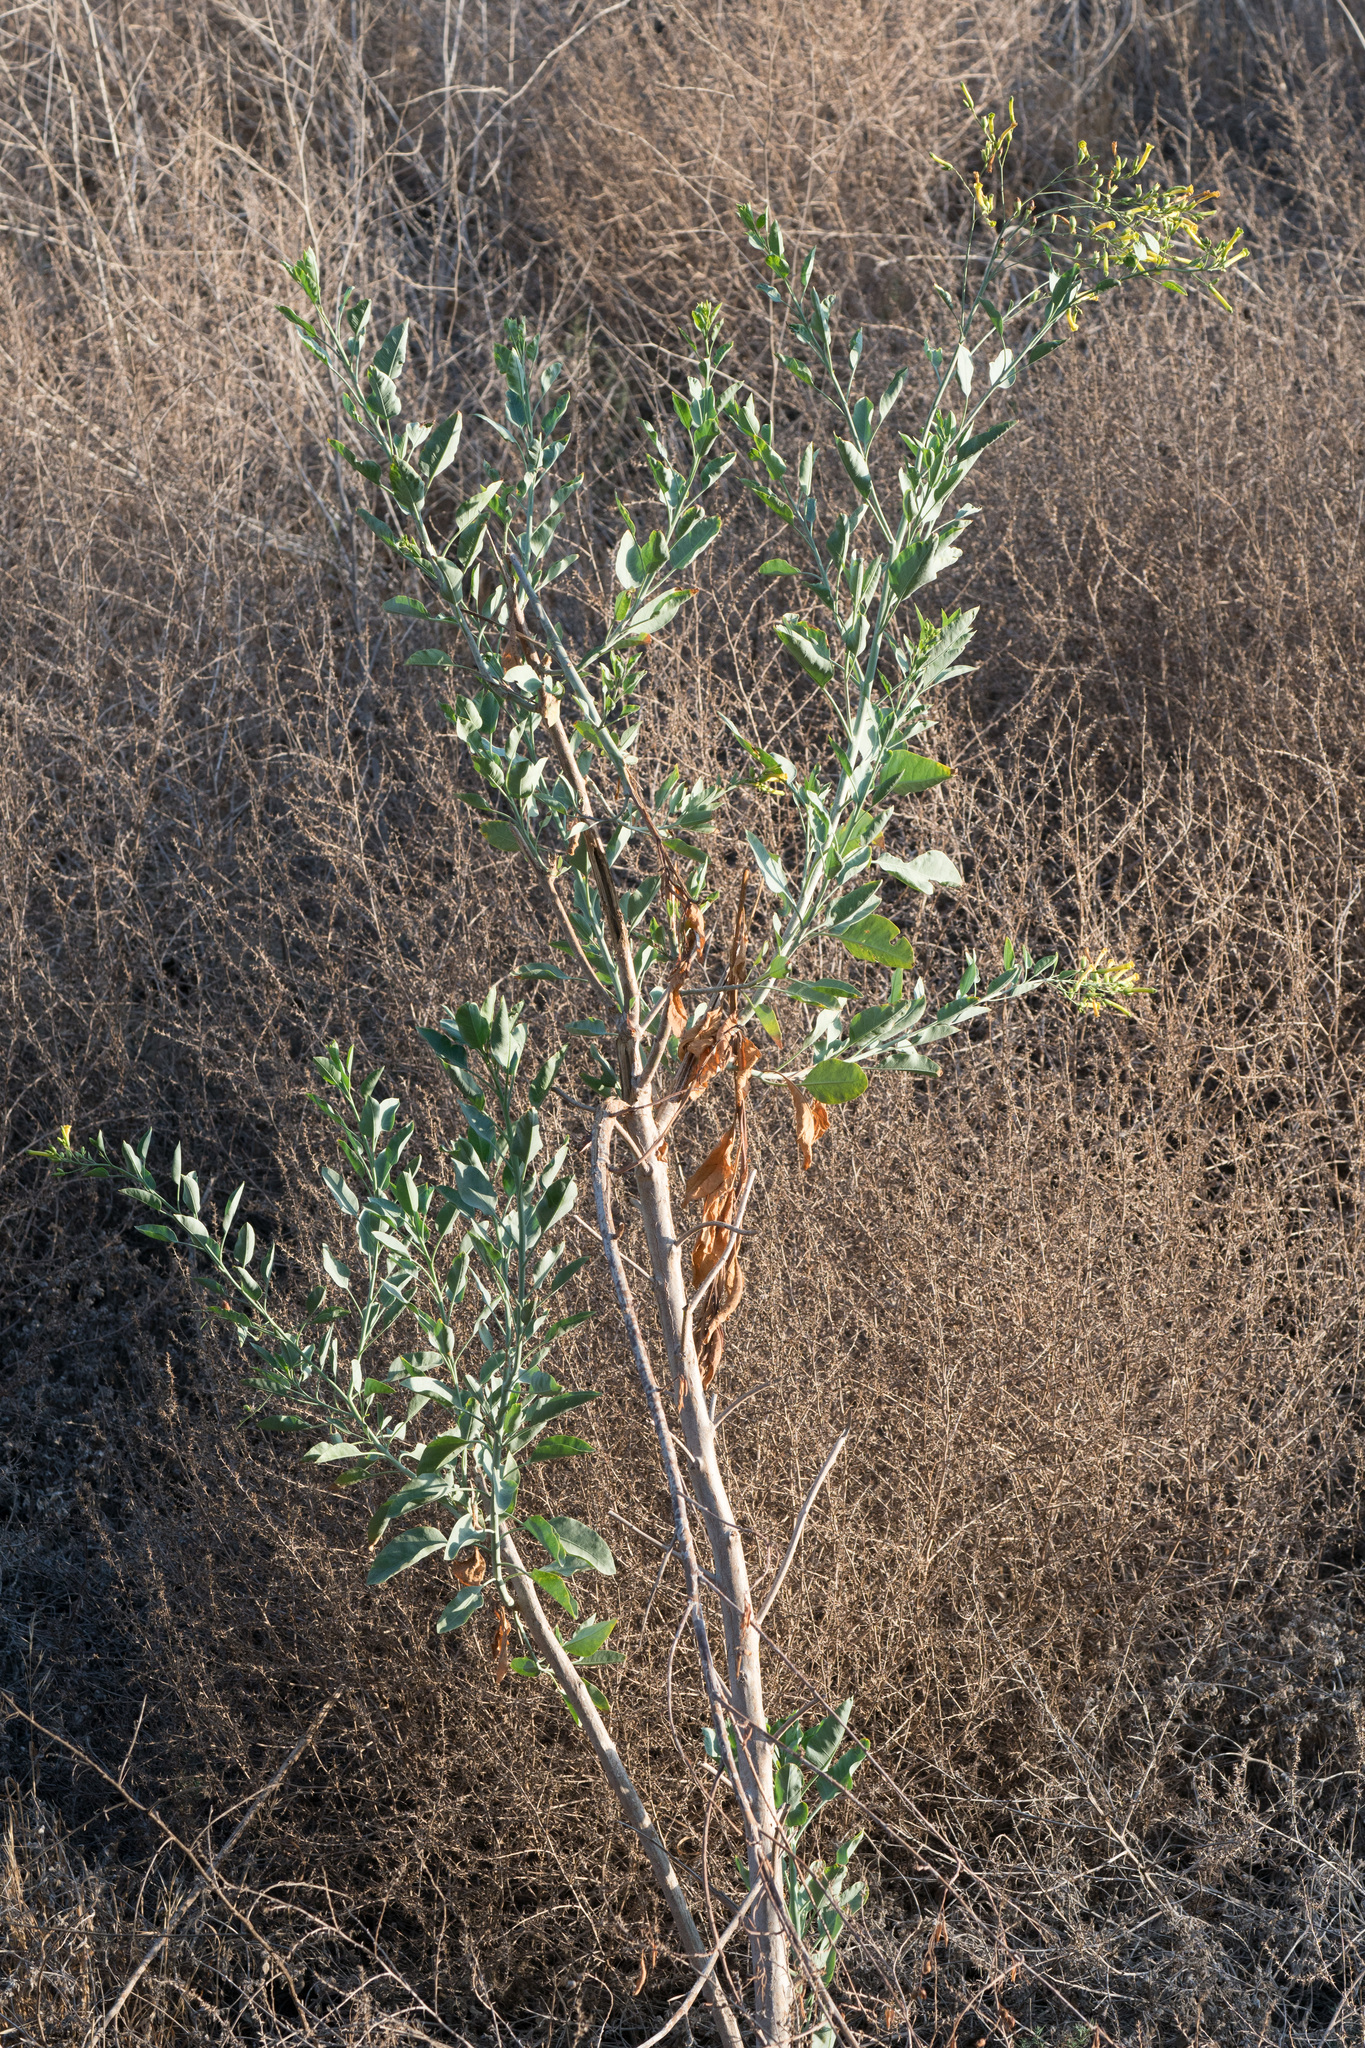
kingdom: Plantae
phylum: Tracheophyta
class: Magnoliopsida
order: Solanales
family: Solanaceae
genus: Nicotiana
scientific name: Nicotiana glauca
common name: Tree tobacco
